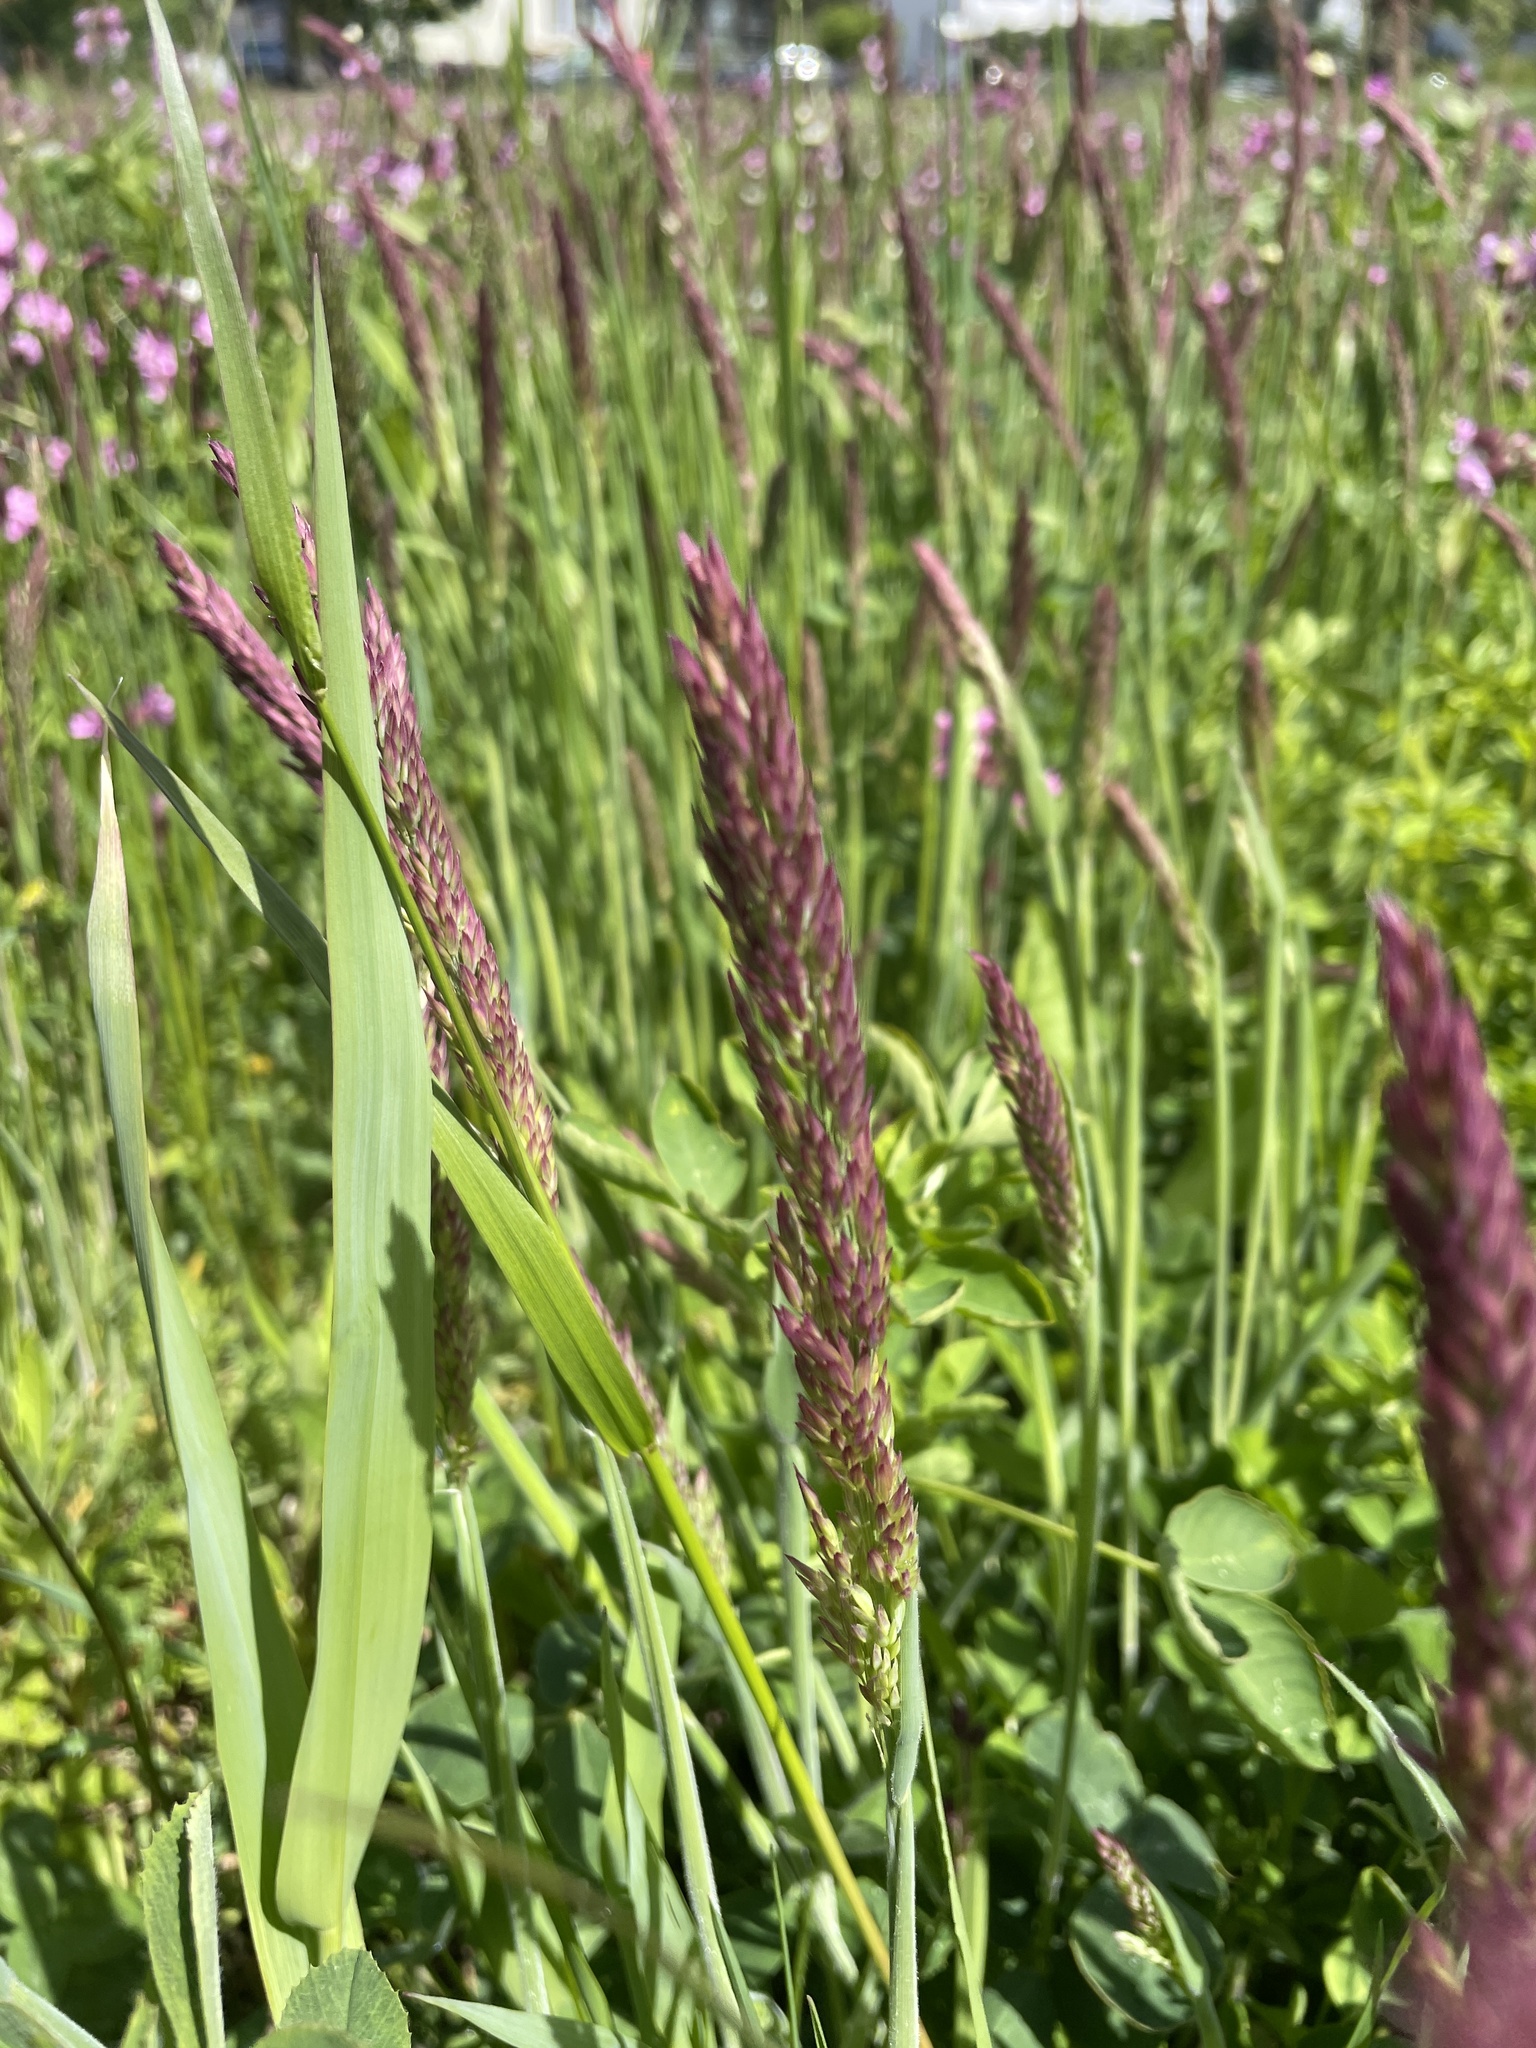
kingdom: Plantae
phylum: Tracheophyta
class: Liliopsida
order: Poales
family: Poaceae
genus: Holcus
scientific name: Holcus lanatus
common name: Yorkshire-fog
